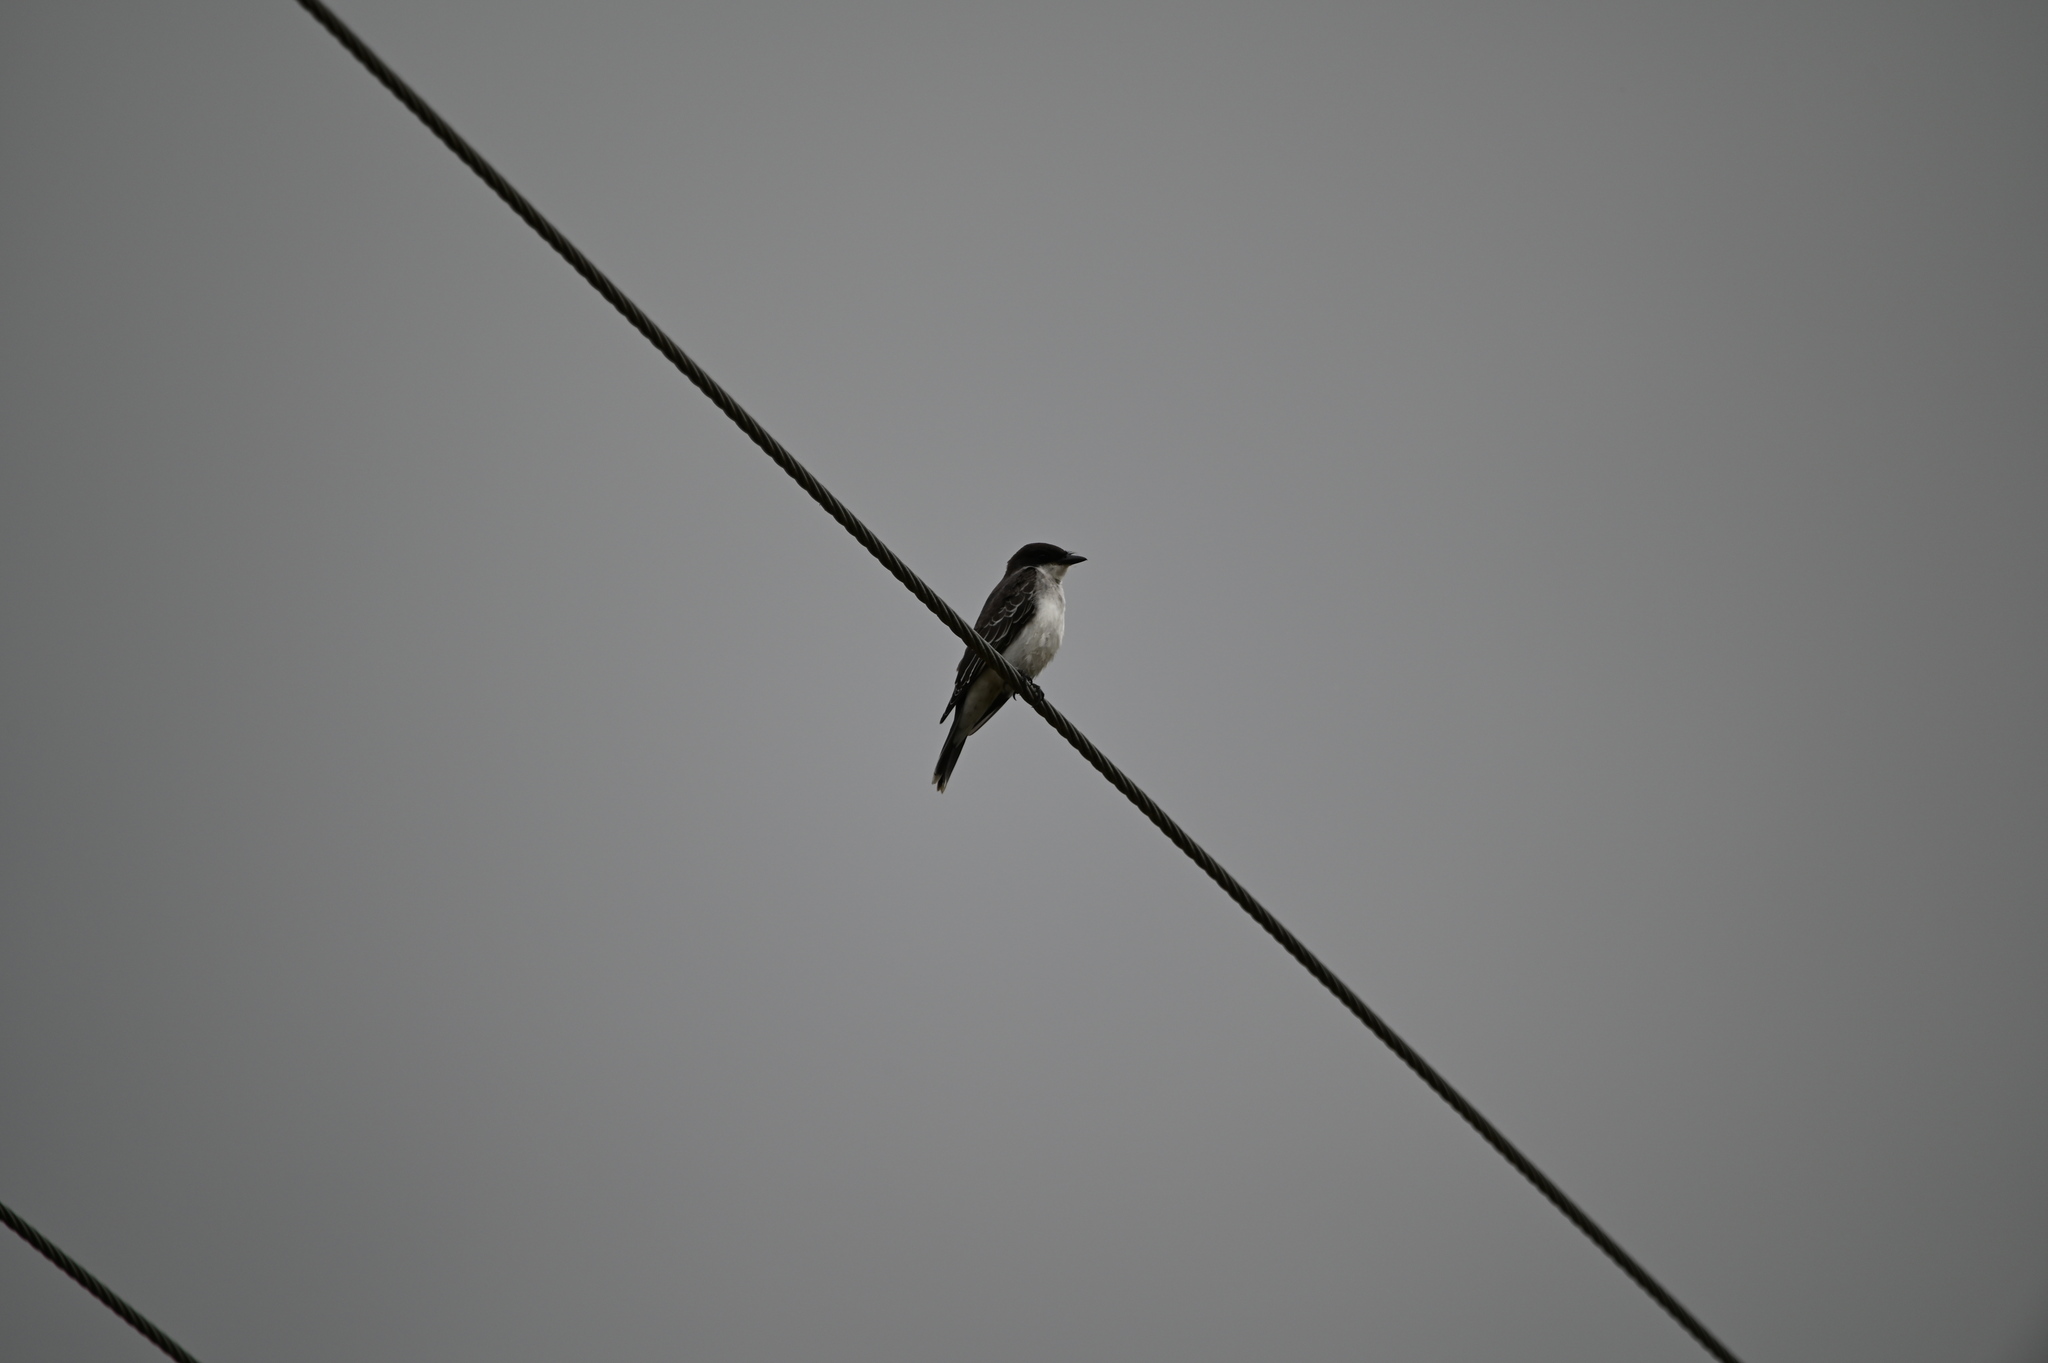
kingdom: Animalia
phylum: Chordata
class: Aves
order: Passeriformes
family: Tyrannidae
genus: Tyrannus
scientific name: Tyrannus tyrannus
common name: Eastern kingbird
